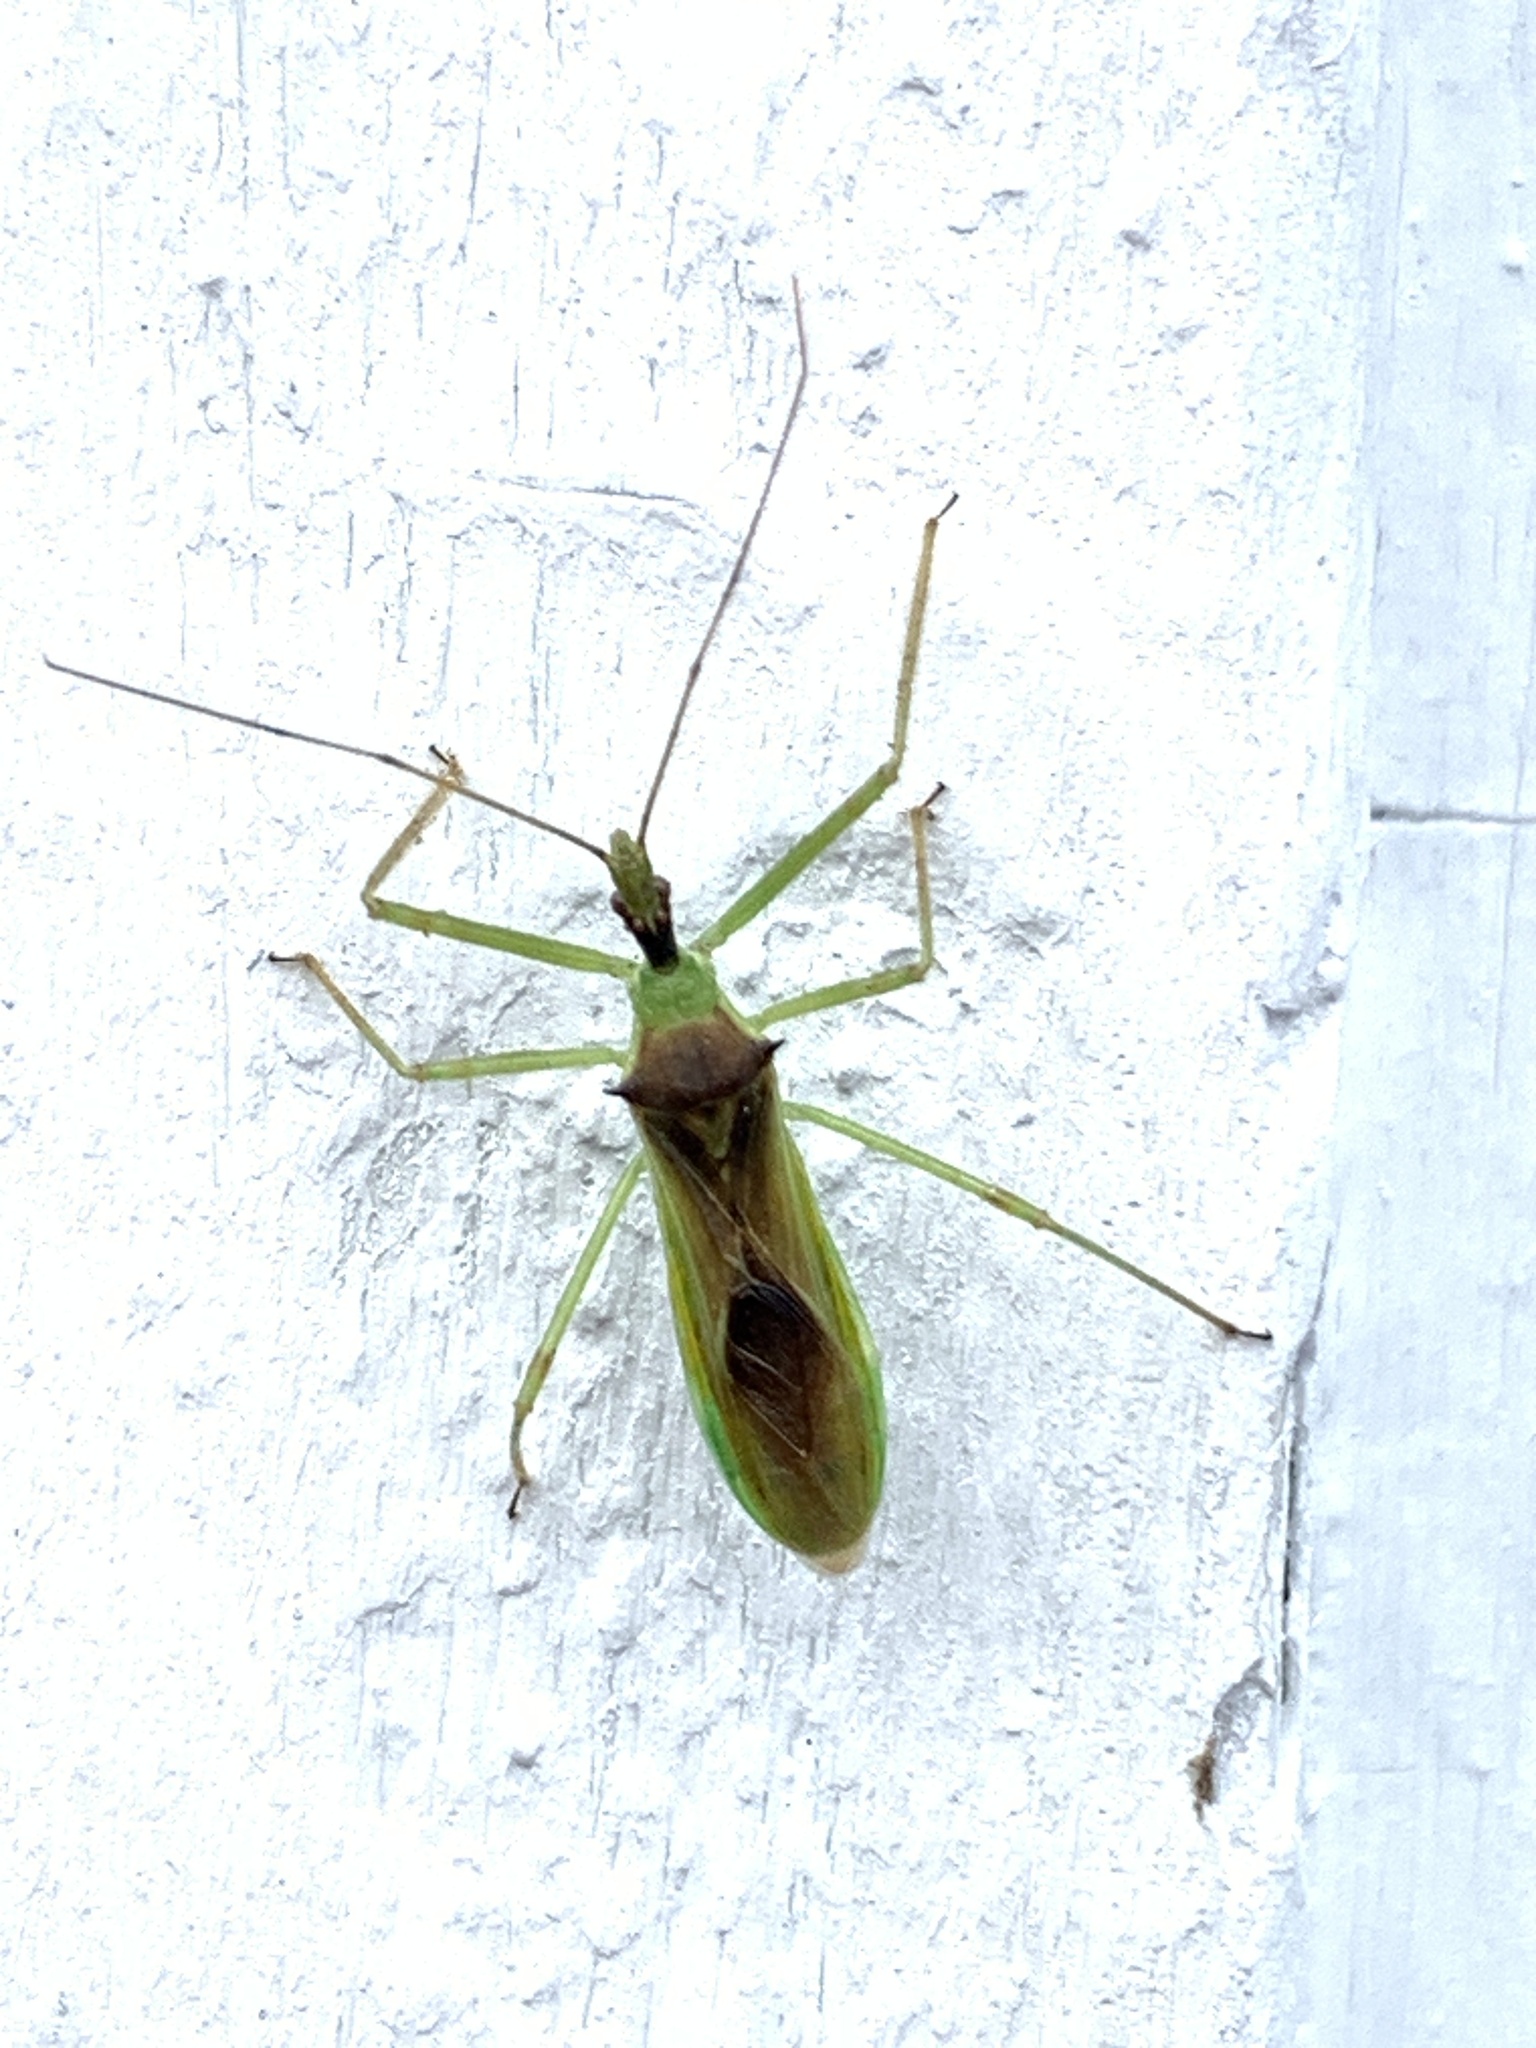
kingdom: Animalia
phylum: Arthropoda
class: Insecta
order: Hemiptera
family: Reduviidae
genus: Zelus
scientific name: Zelus luridus
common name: Pale green assassin bug
